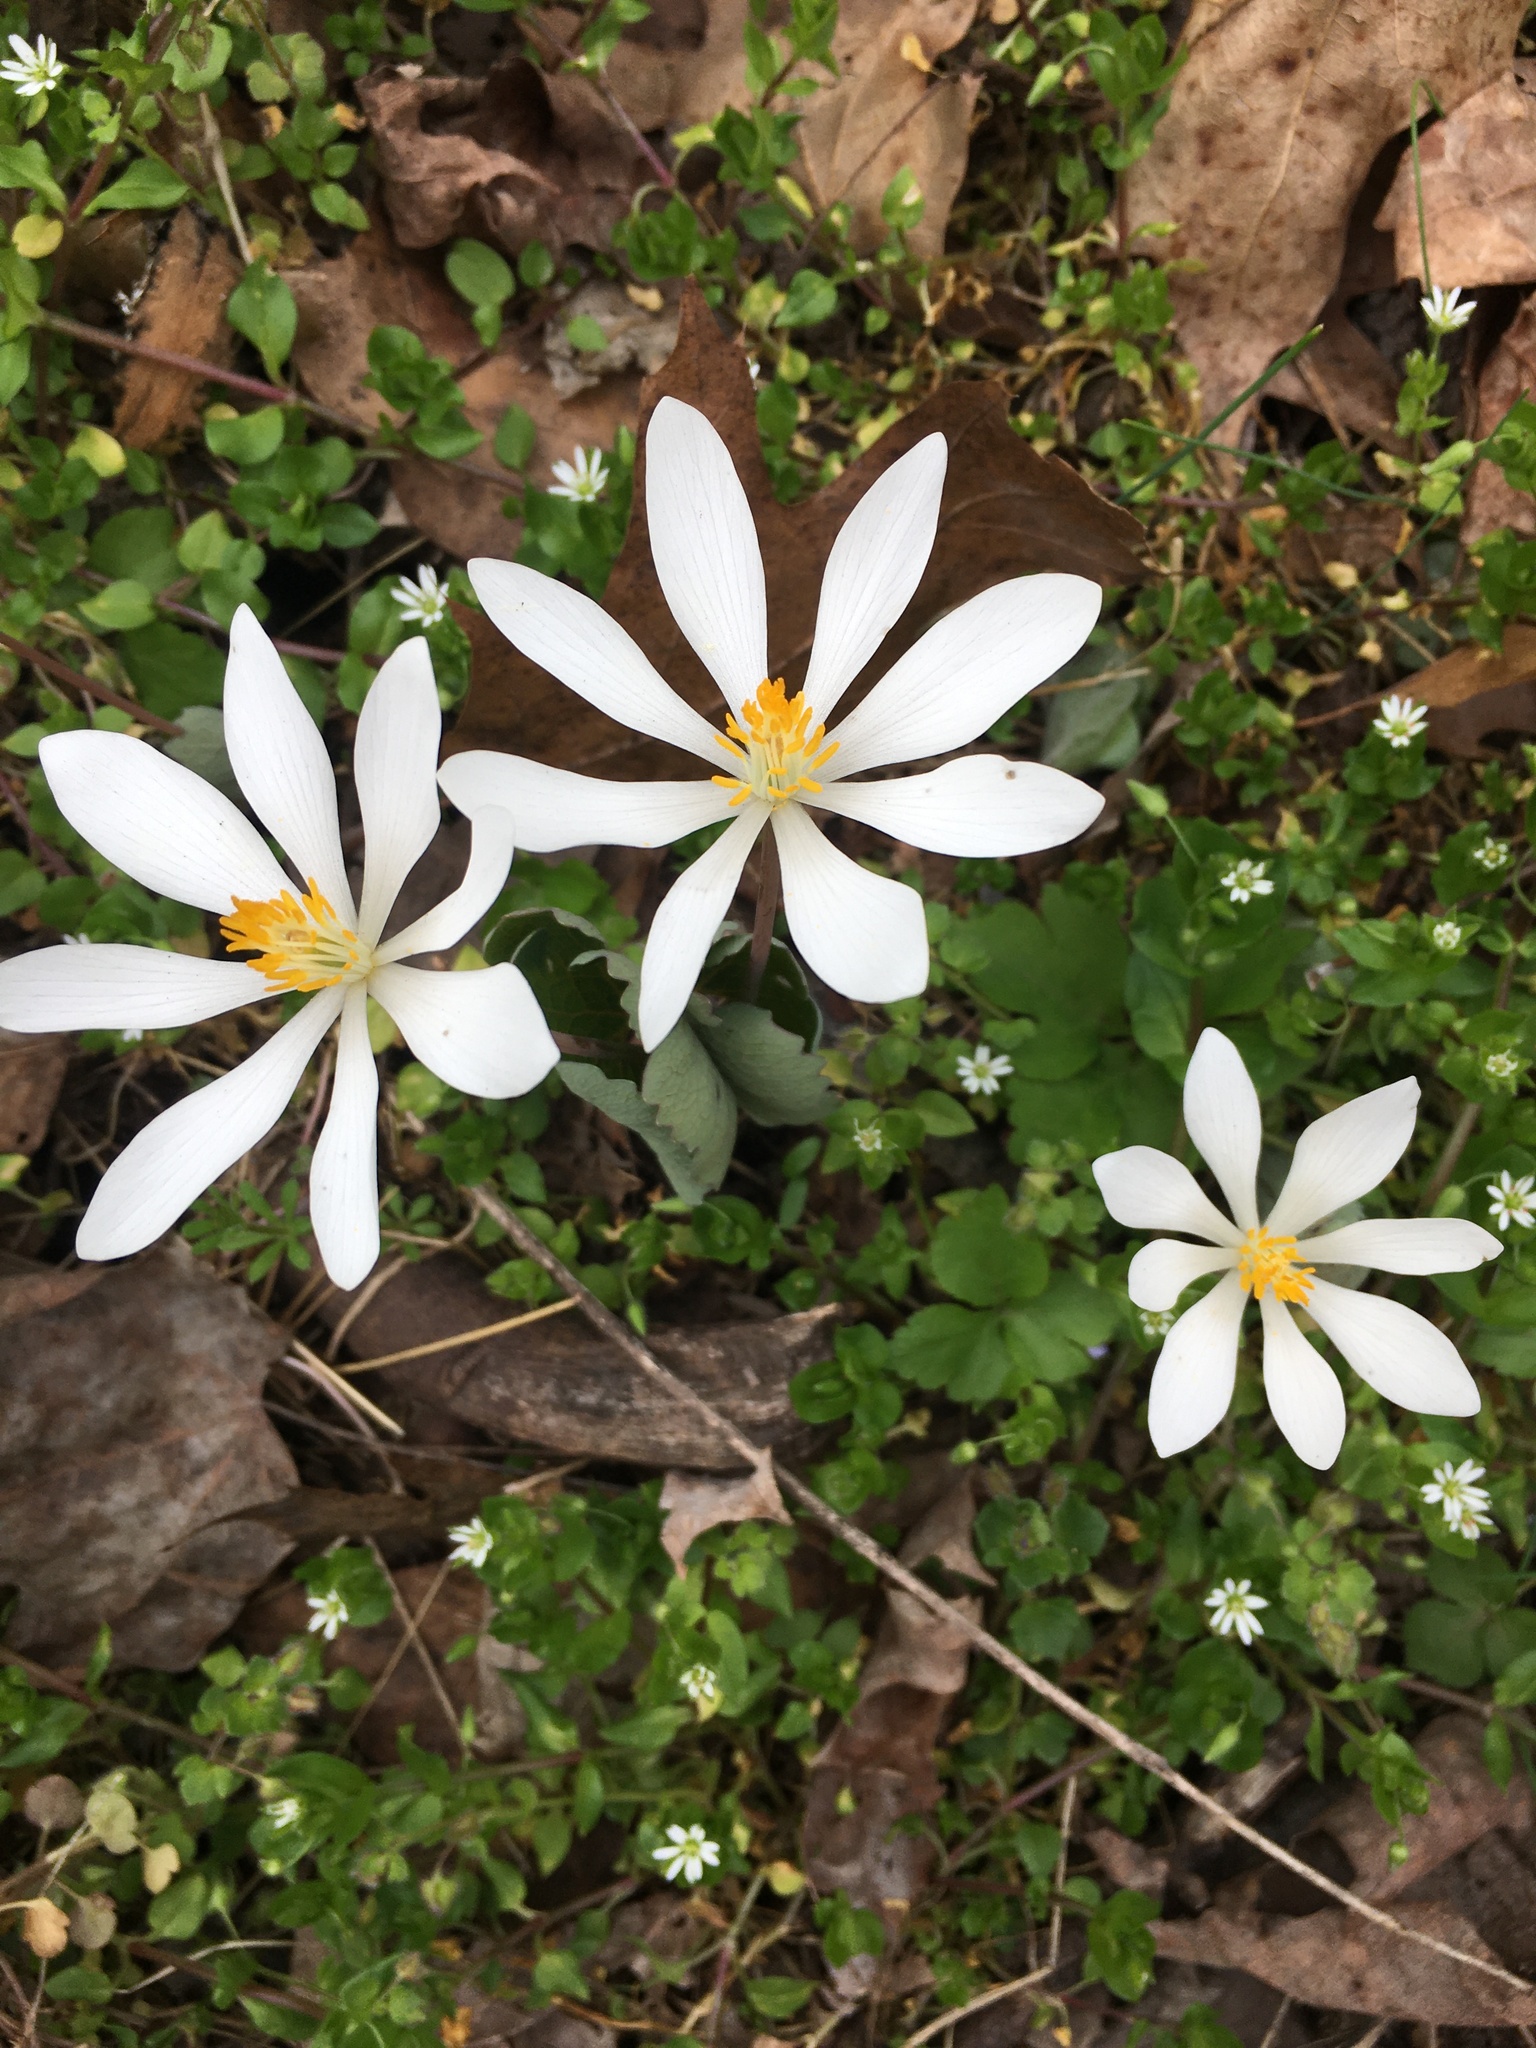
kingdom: Plantae
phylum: Tracheophyta
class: Magnoliopsida
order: Ranunculales
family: Papaveraceae
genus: Sanguinaria
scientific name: Sanguinaria canadensis
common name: Bloodroot
